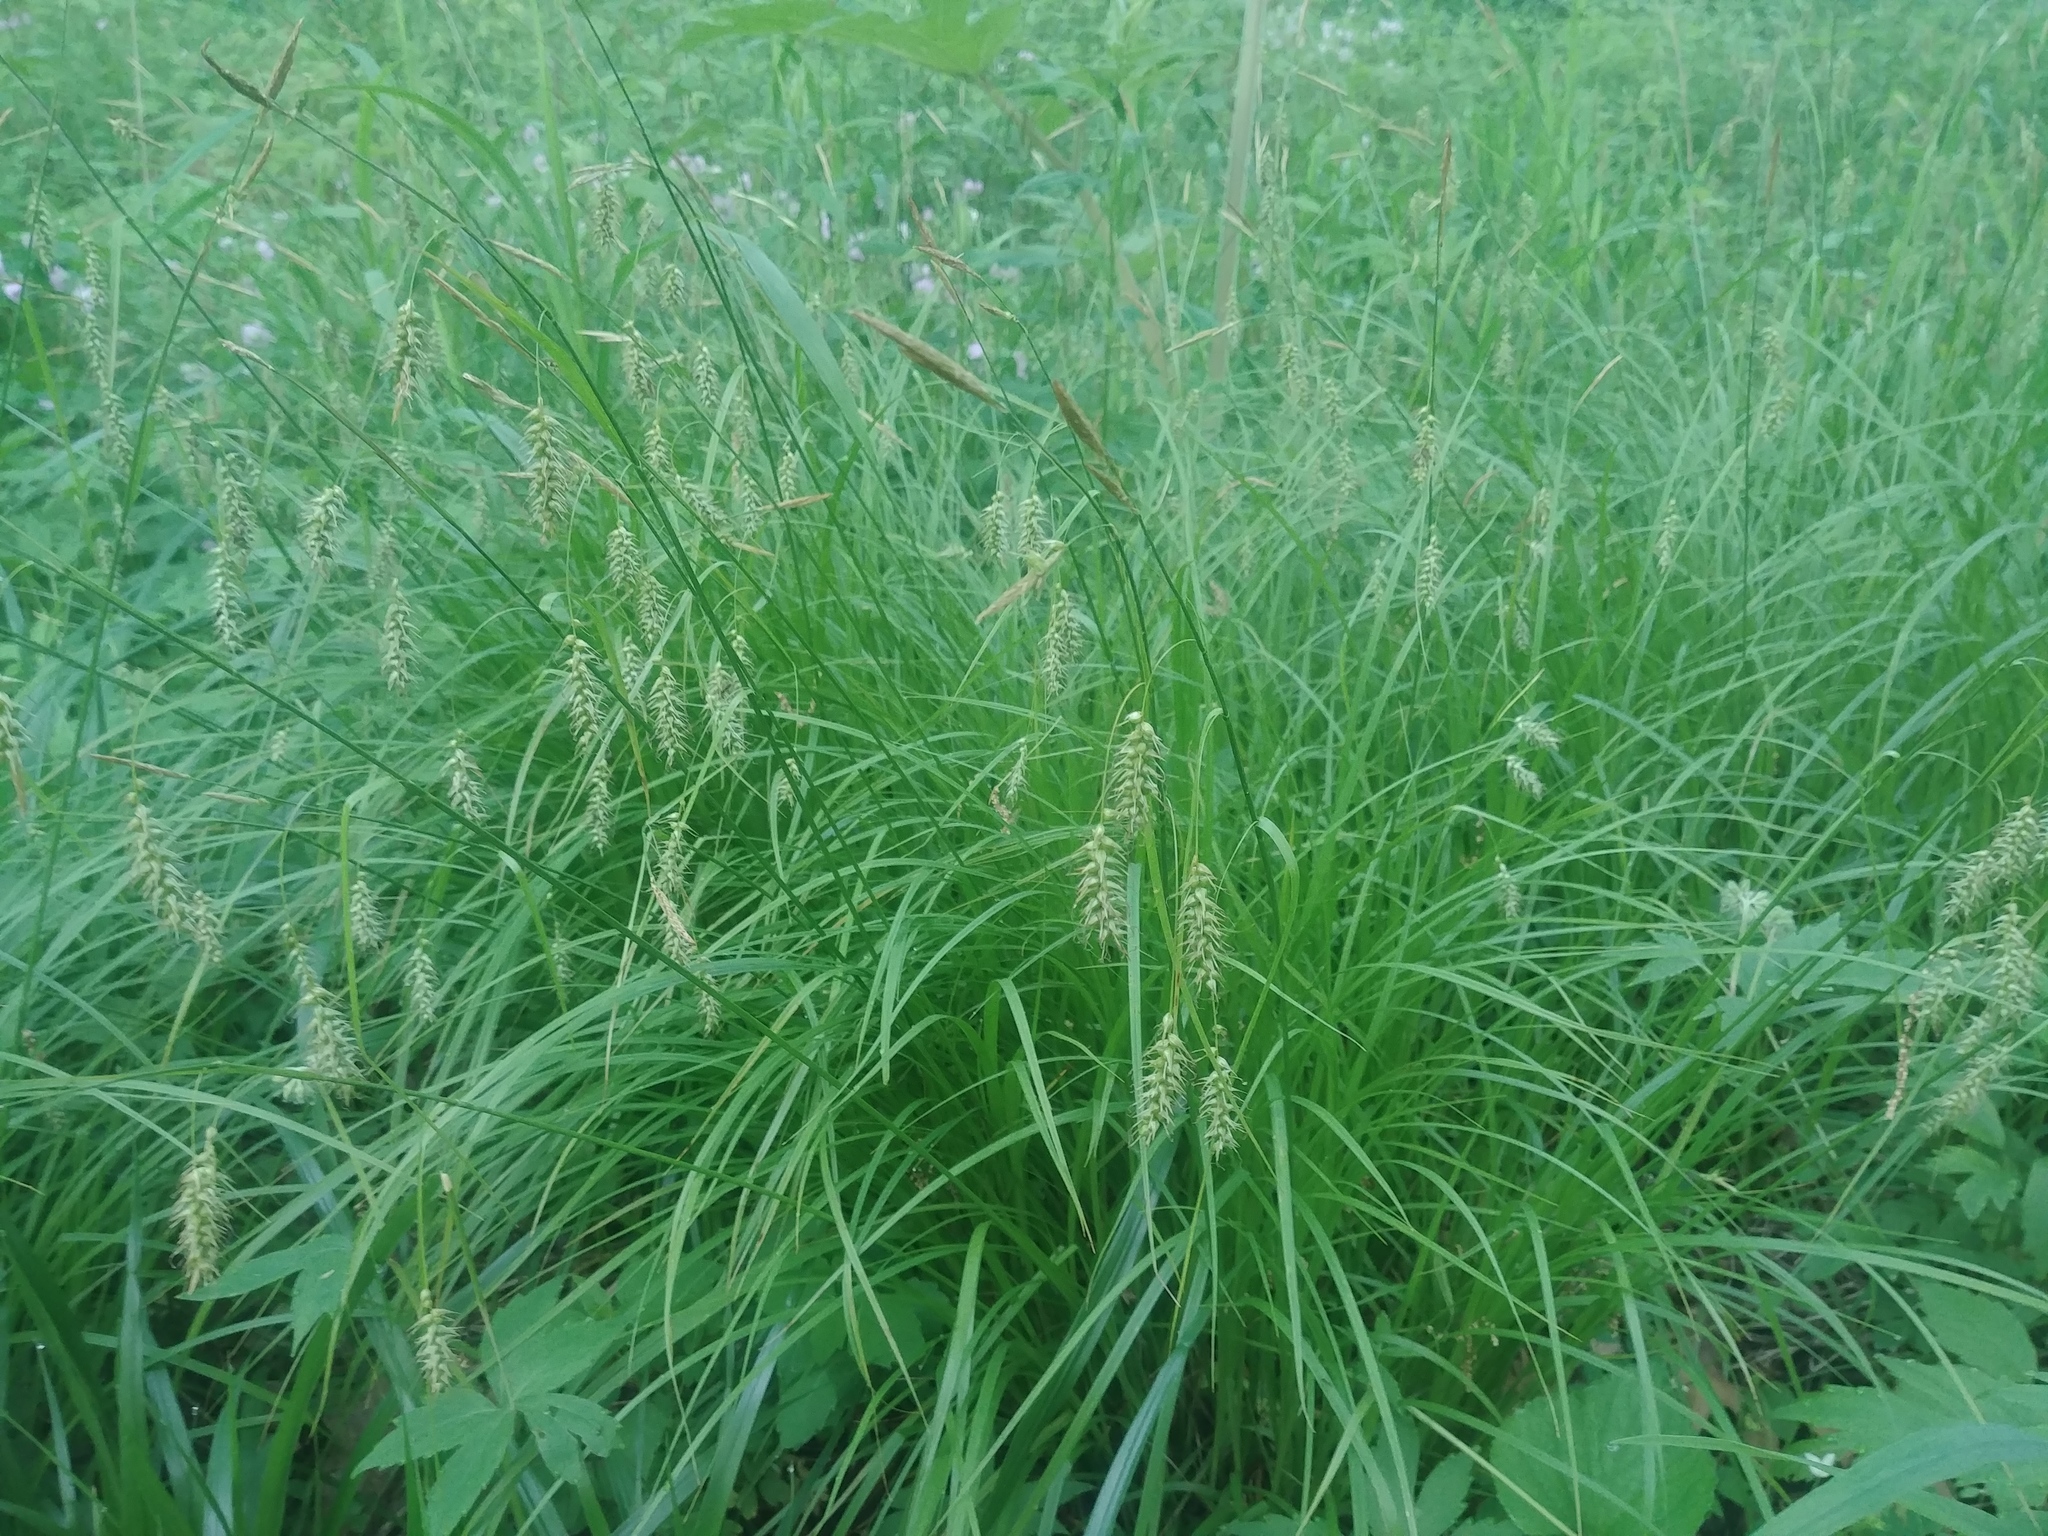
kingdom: Plantae
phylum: Tracheophyta
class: Liliopsida
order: Poales
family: Cyperaceae
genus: Carex
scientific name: Carex sprengelii
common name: Long-beaked sedge
